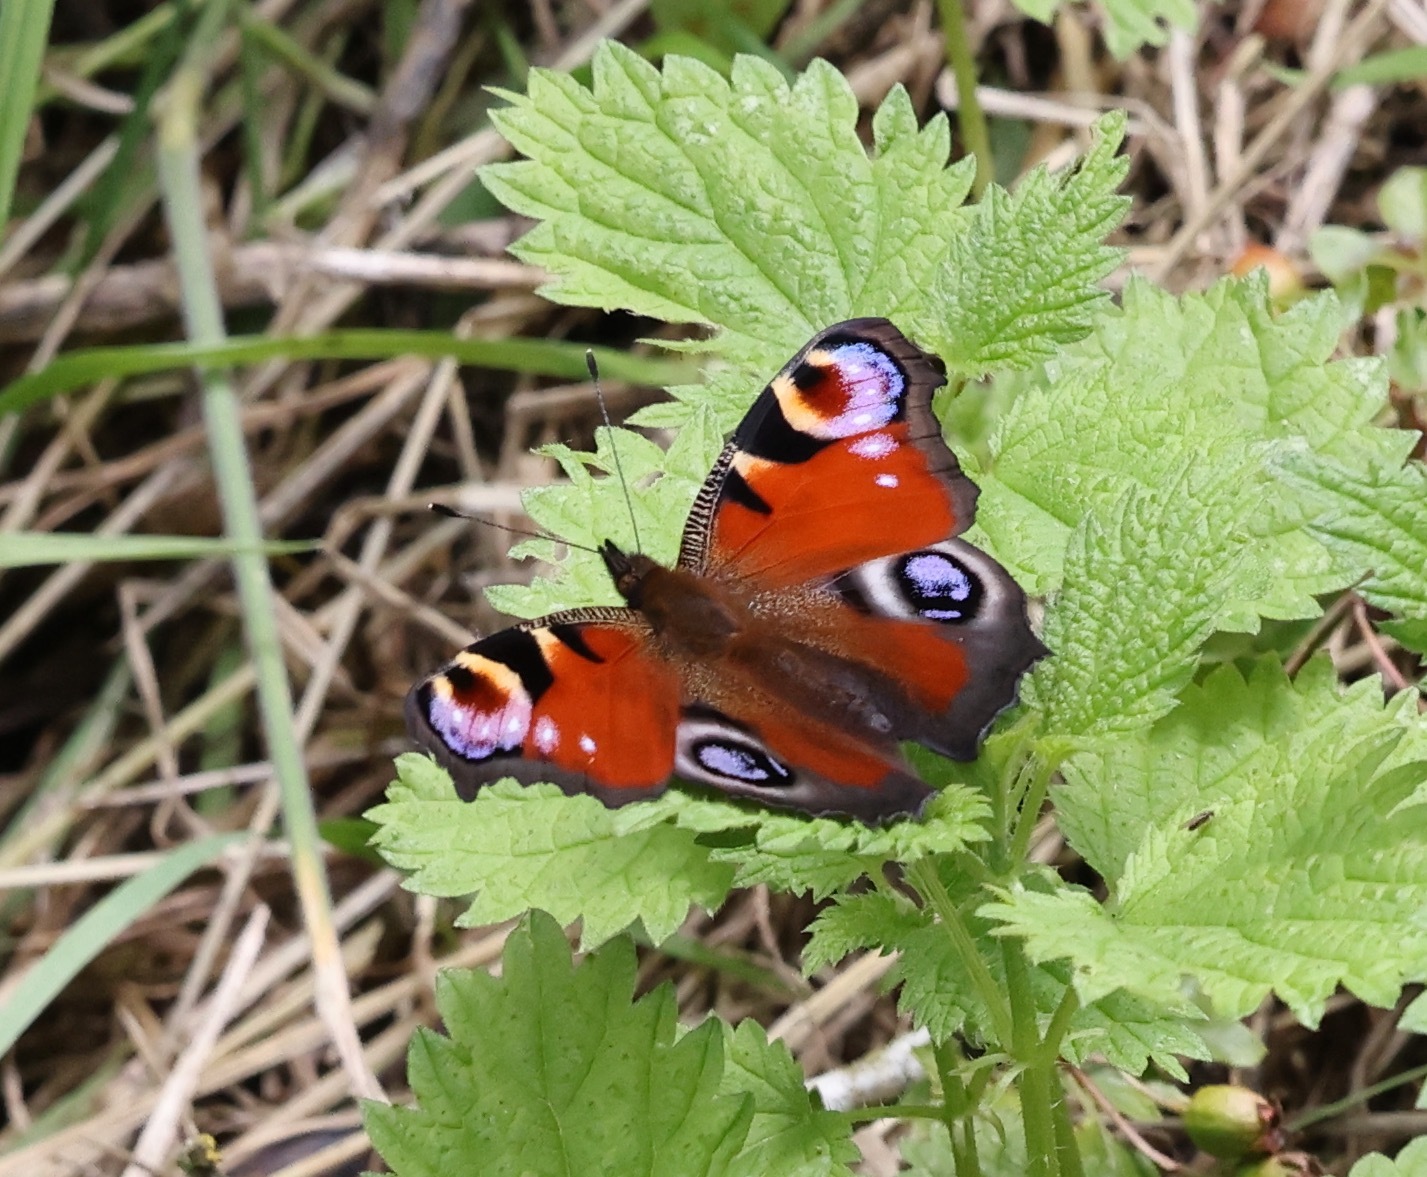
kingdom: Animalia
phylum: Arthropoda
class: Insecta
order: Lepidoptera
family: Nymphalidae
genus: Aglais
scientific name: Aglais io
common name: Peacock
